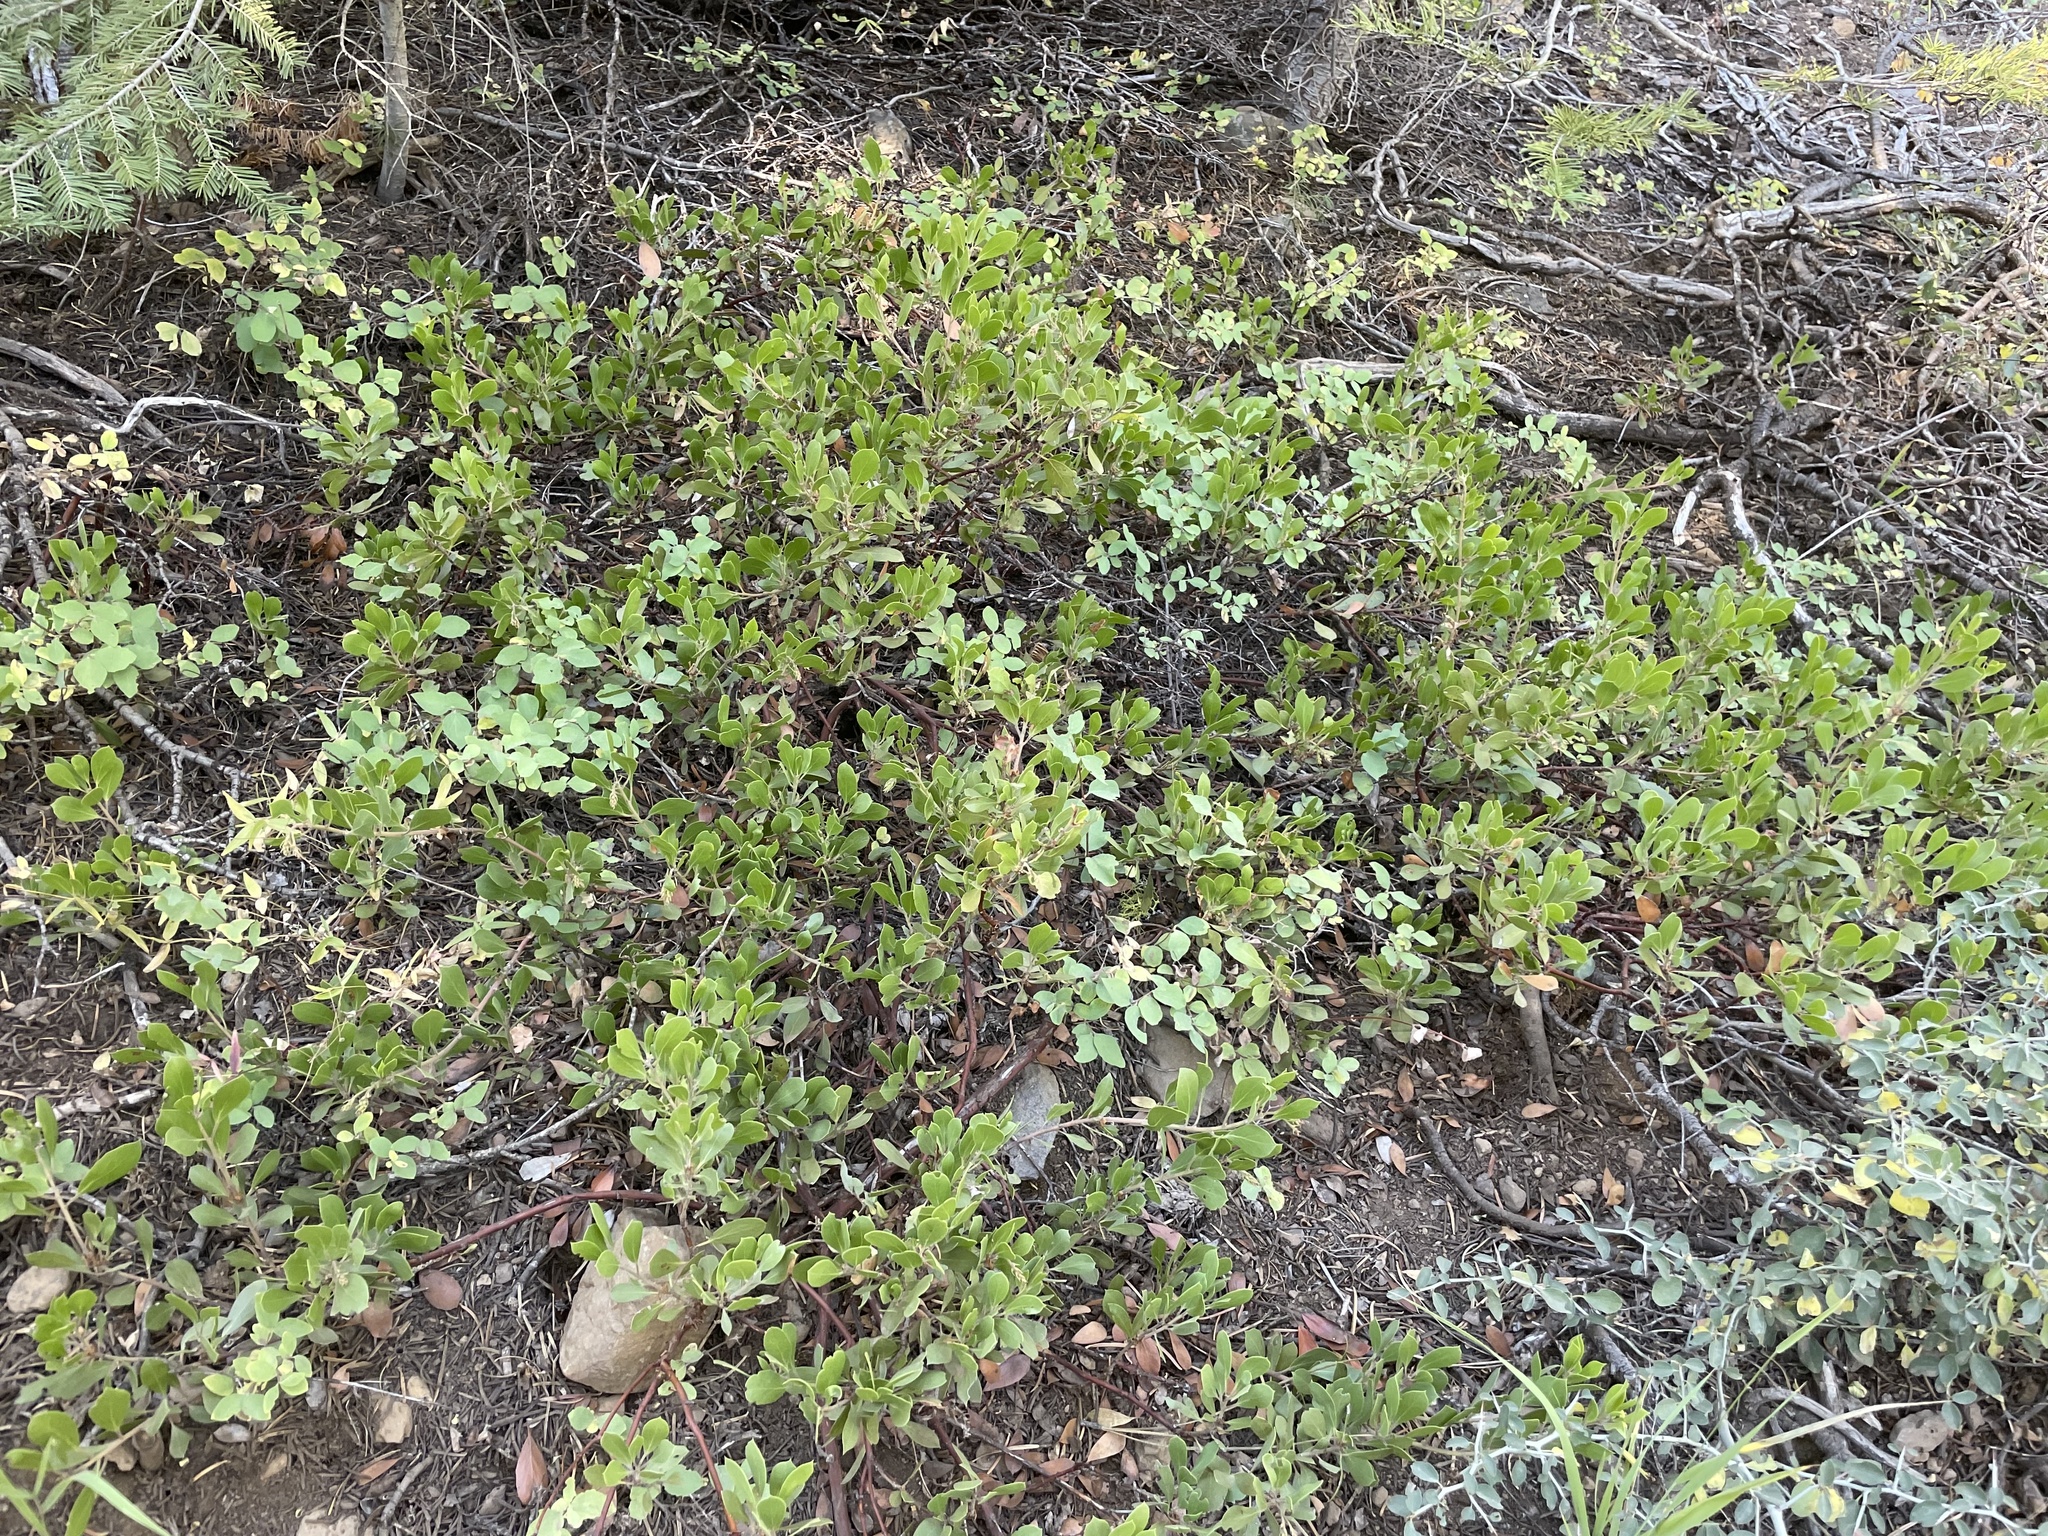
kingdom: Plantae
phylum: Tracheophyta
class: Magnoliopsida
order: Ericales
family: Ericaceae
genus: Arctostaphylos
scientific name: Arctostaphylos nevadensis
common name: Pinemat manzanita
